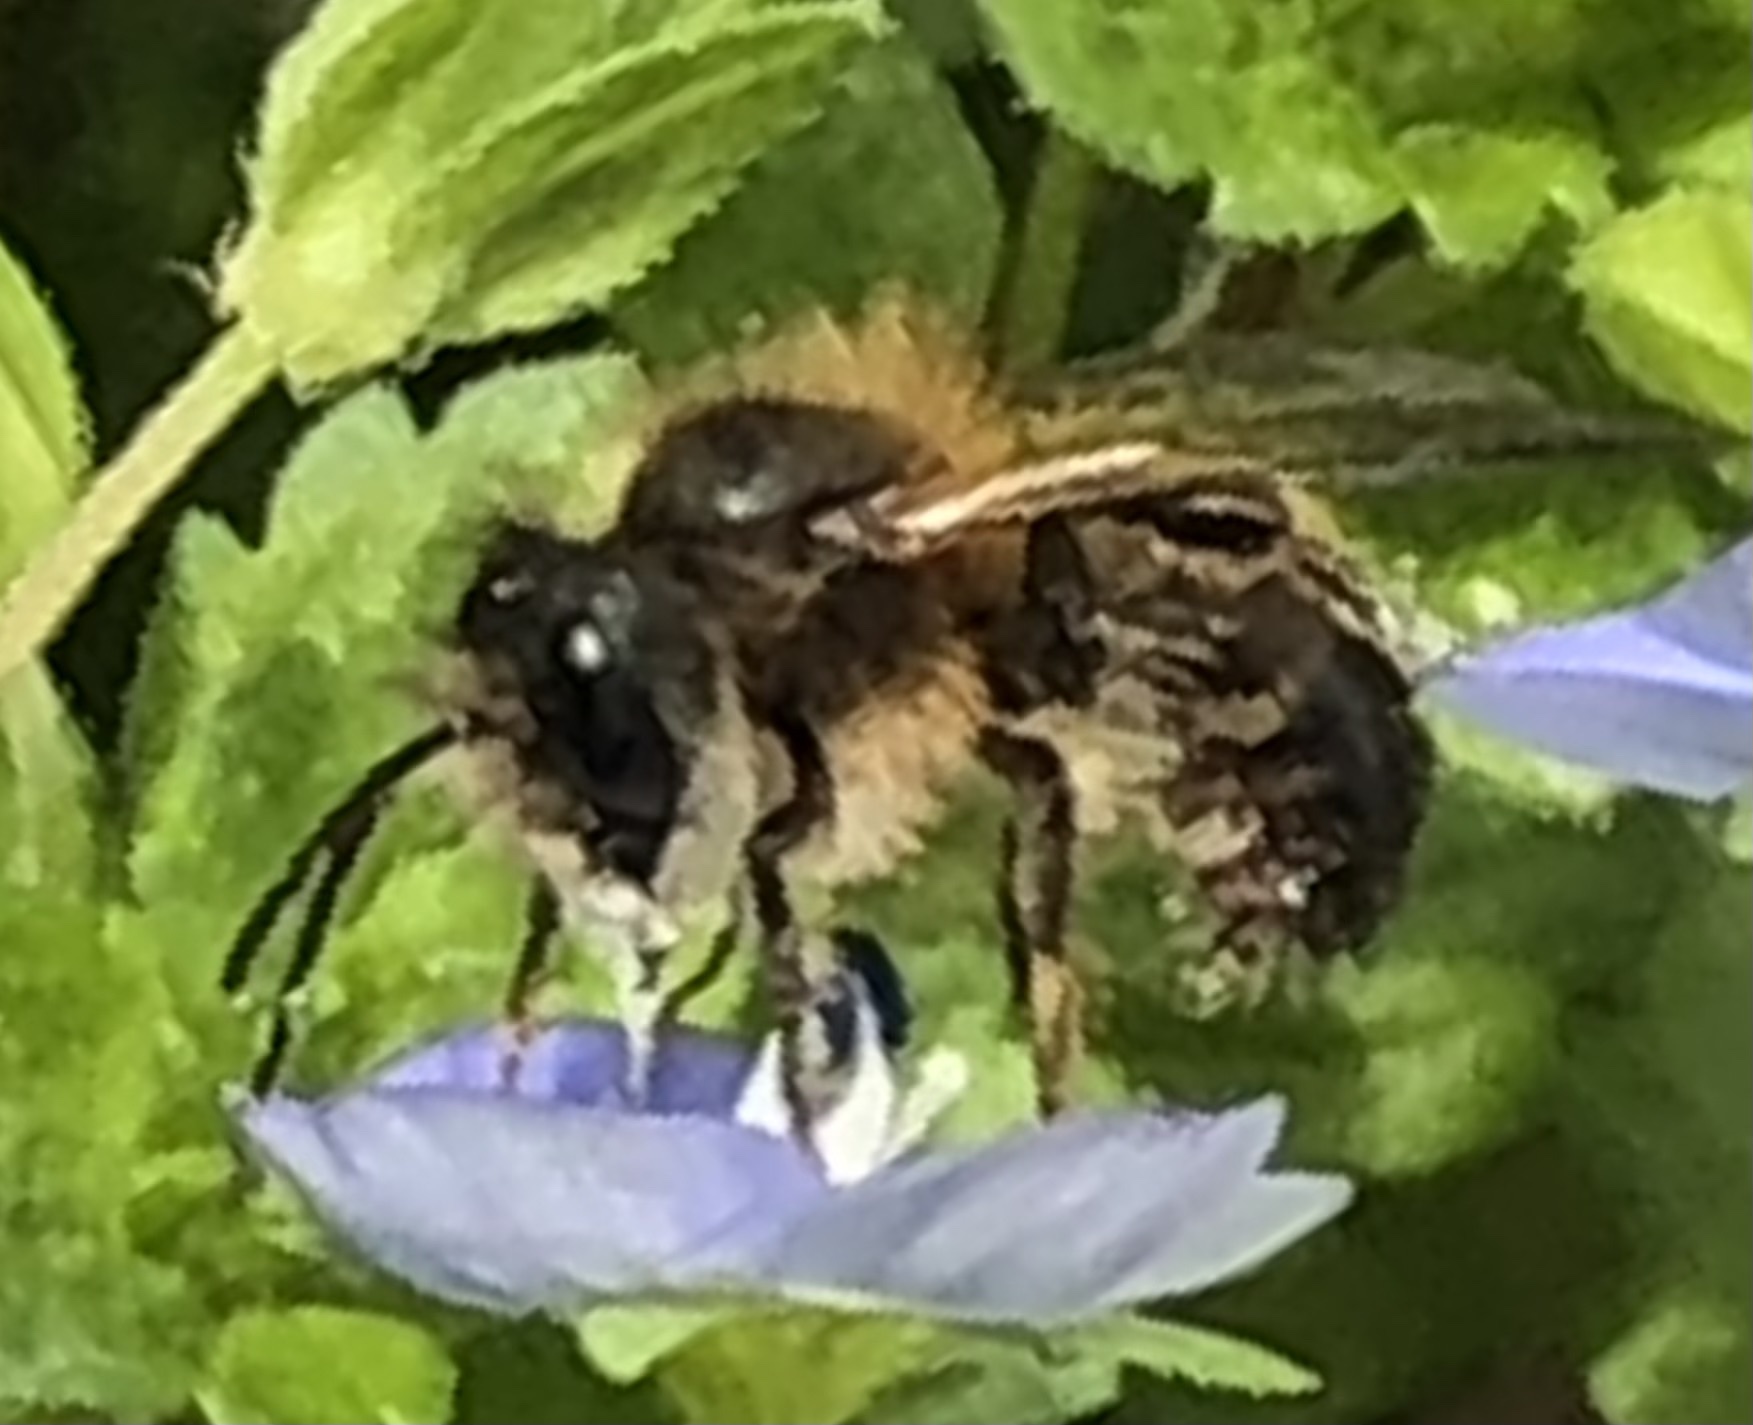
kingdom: Animalia
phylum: Arthropoda
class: Insecta
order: Hymenoptera
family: Megachilidae
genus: Osmia
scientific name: Osmia taurus
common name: Taurus mason bee
